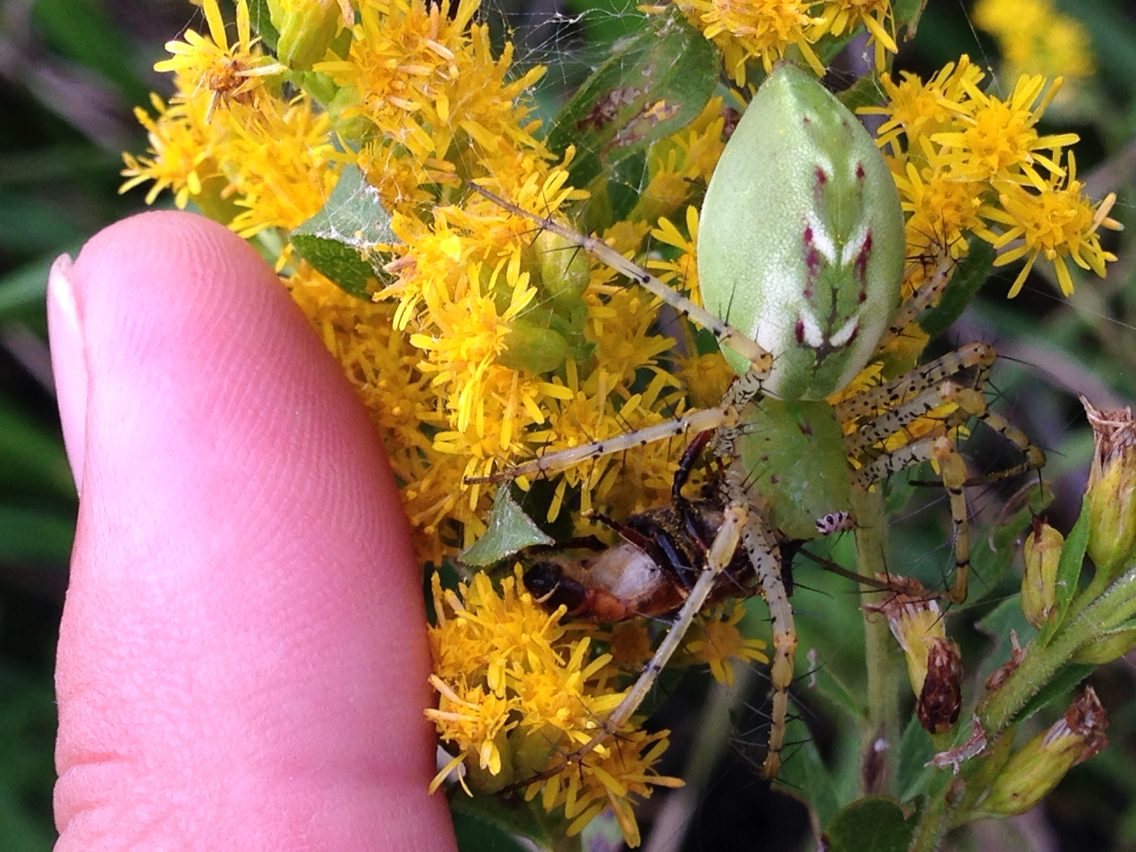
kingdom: Animalia
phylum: Arthropoda
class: Arachnida
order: Araneae
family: Oxyopidae
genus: Peucetia
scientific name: Peucetia viridans
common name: Lynx spiders
